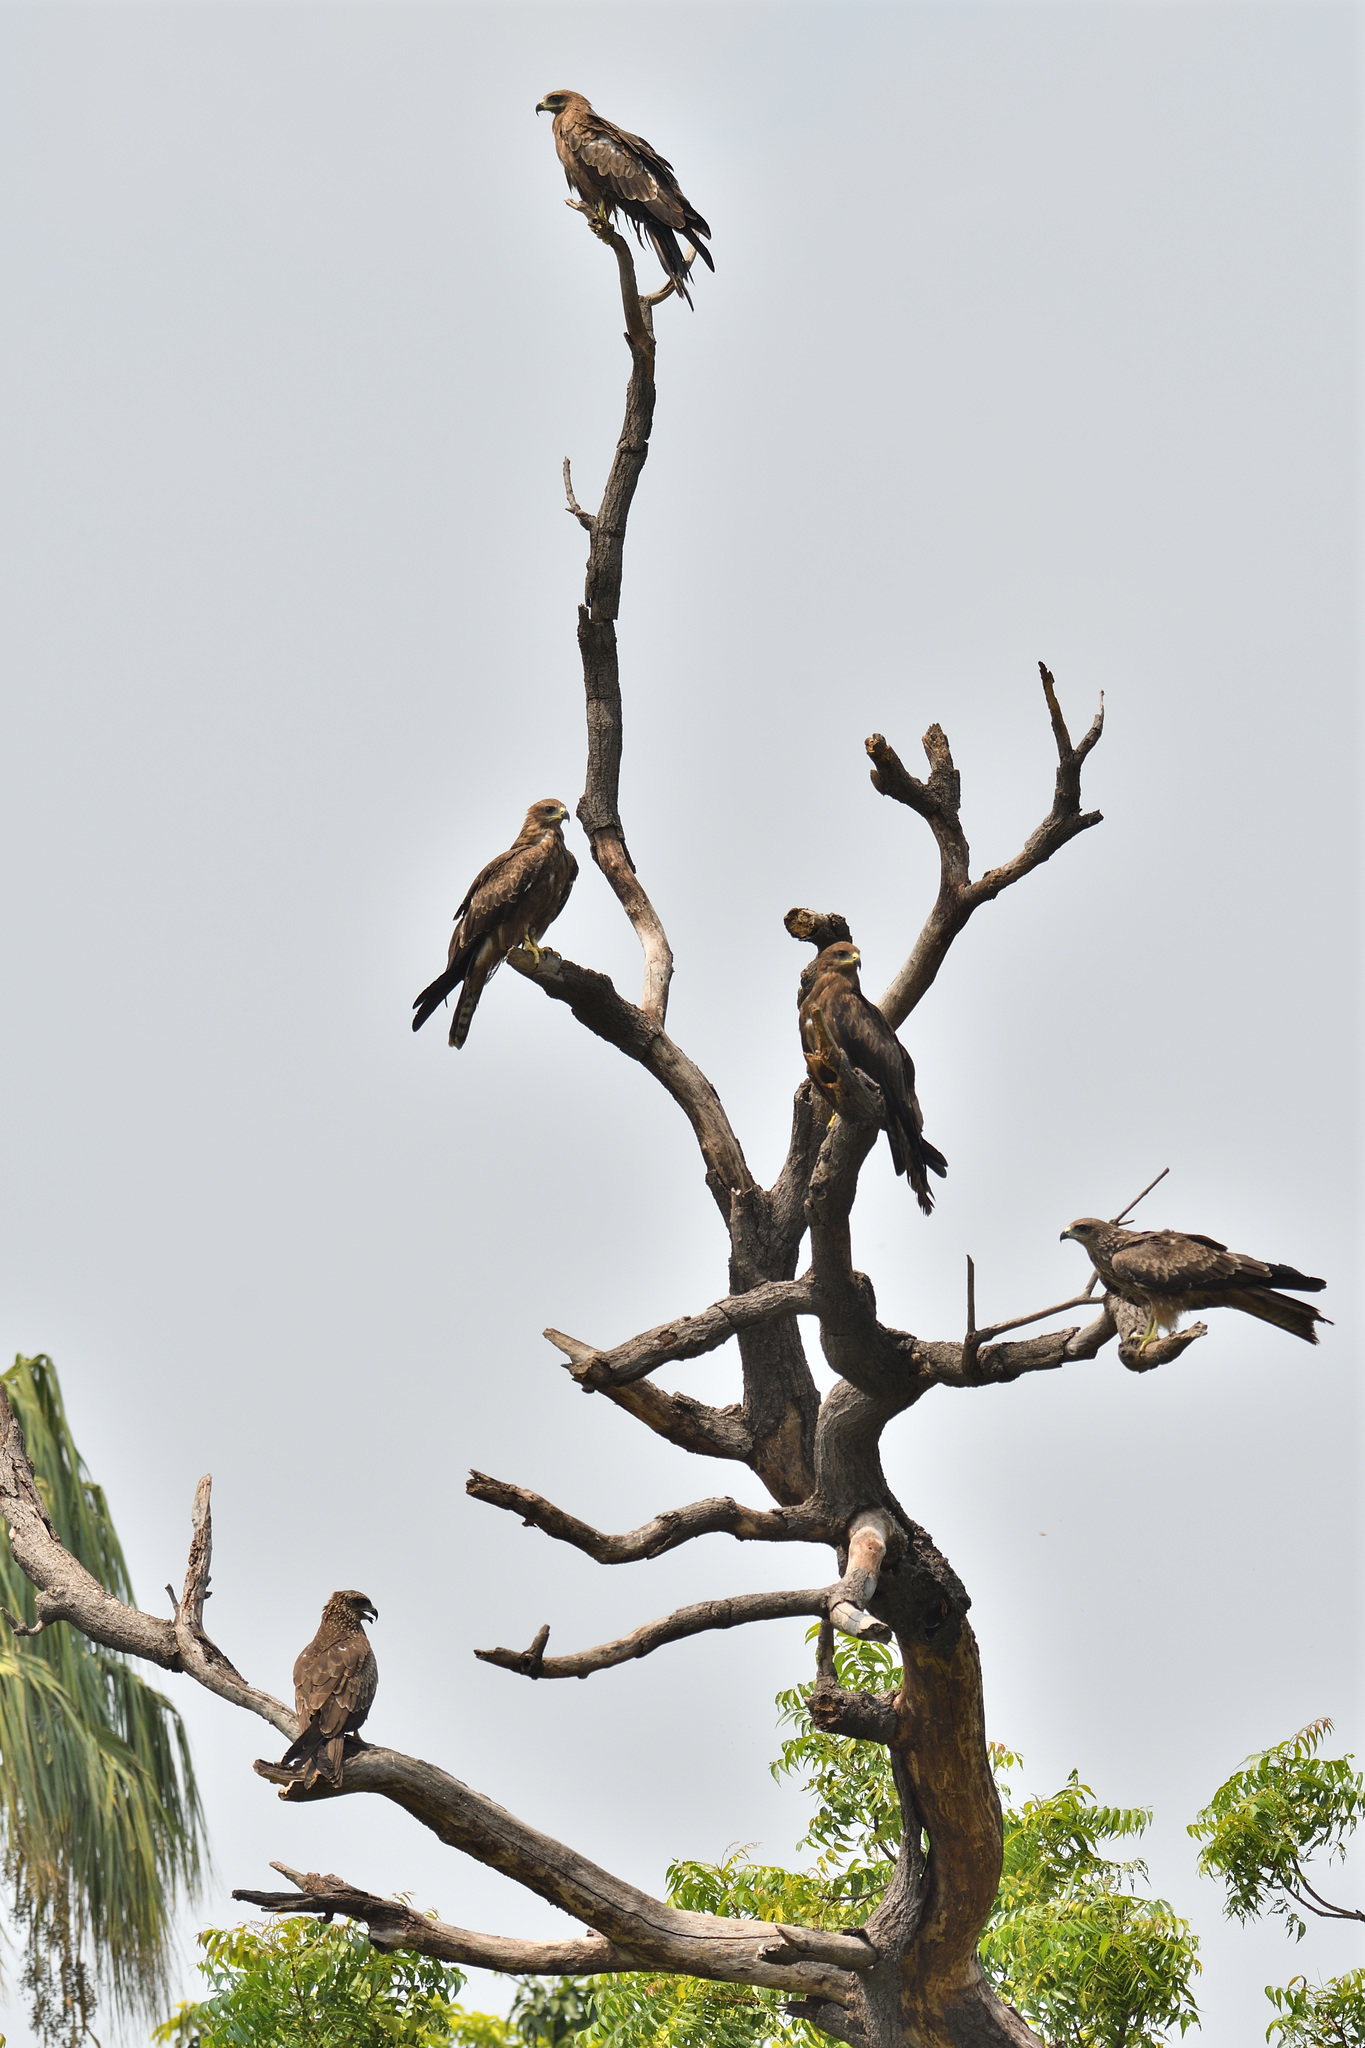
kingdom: Animalia
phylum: Chordata
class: Aves
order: Accipitriformes
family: Accipitridae
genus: Milvus
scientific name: Milvus migrans
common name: Black kite
